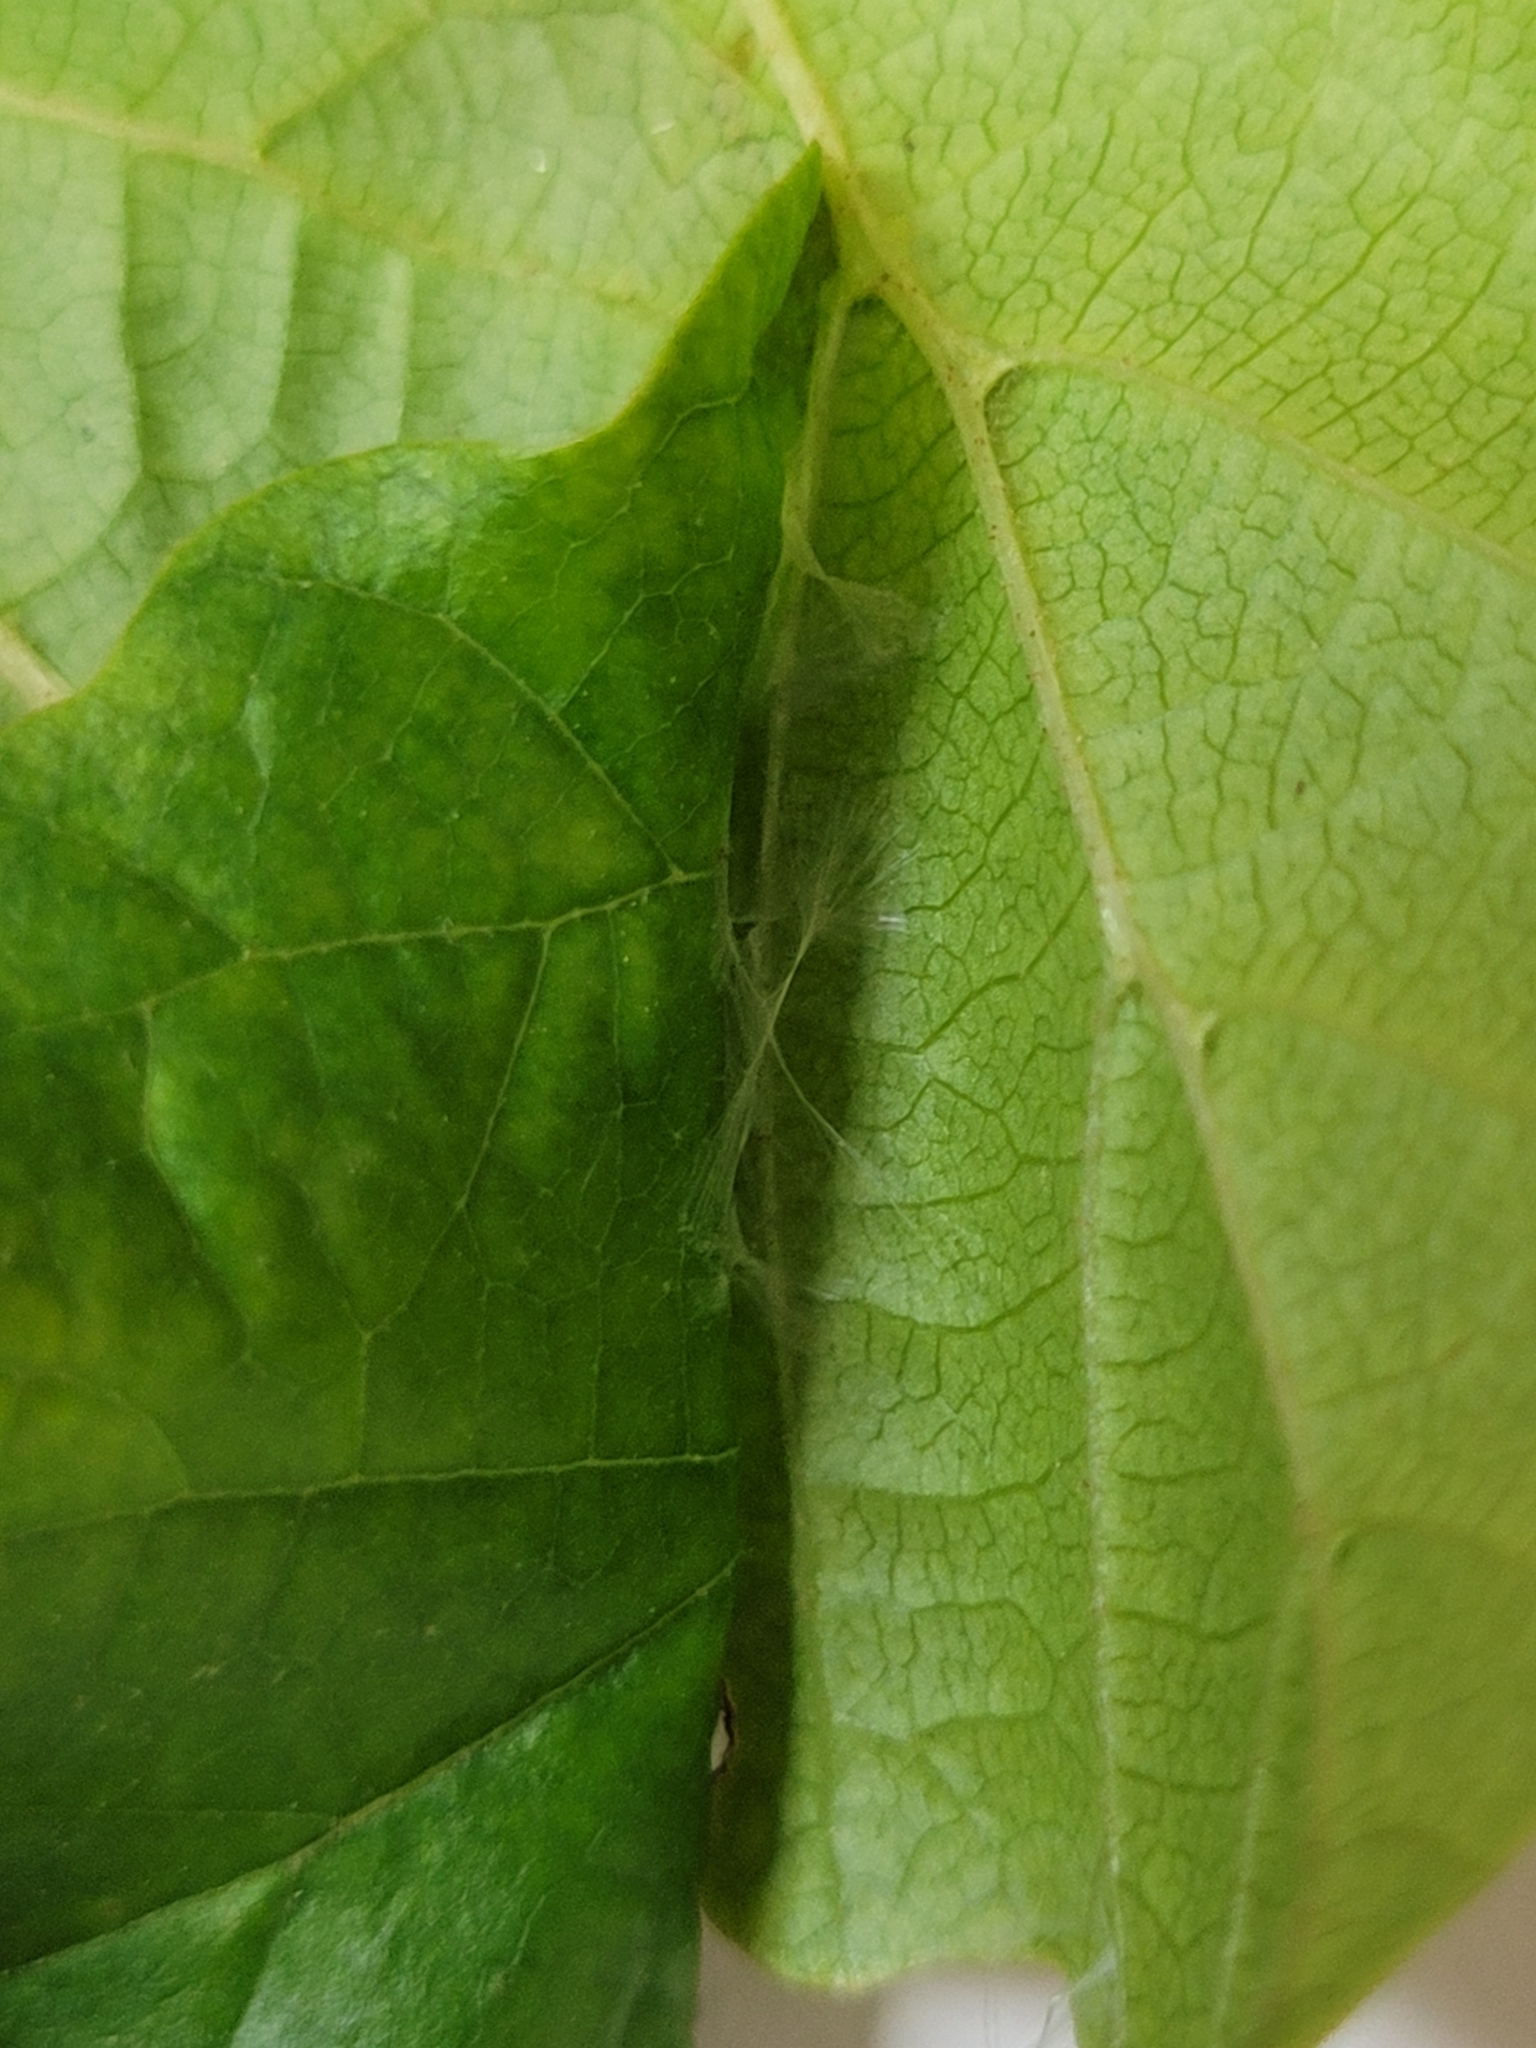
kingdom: Animalia
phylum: Arthropoda
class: Insecta
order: Lepidoptera
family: Gracillariidae
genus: Caloptilia
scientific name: Caloptilia superbifrontella
